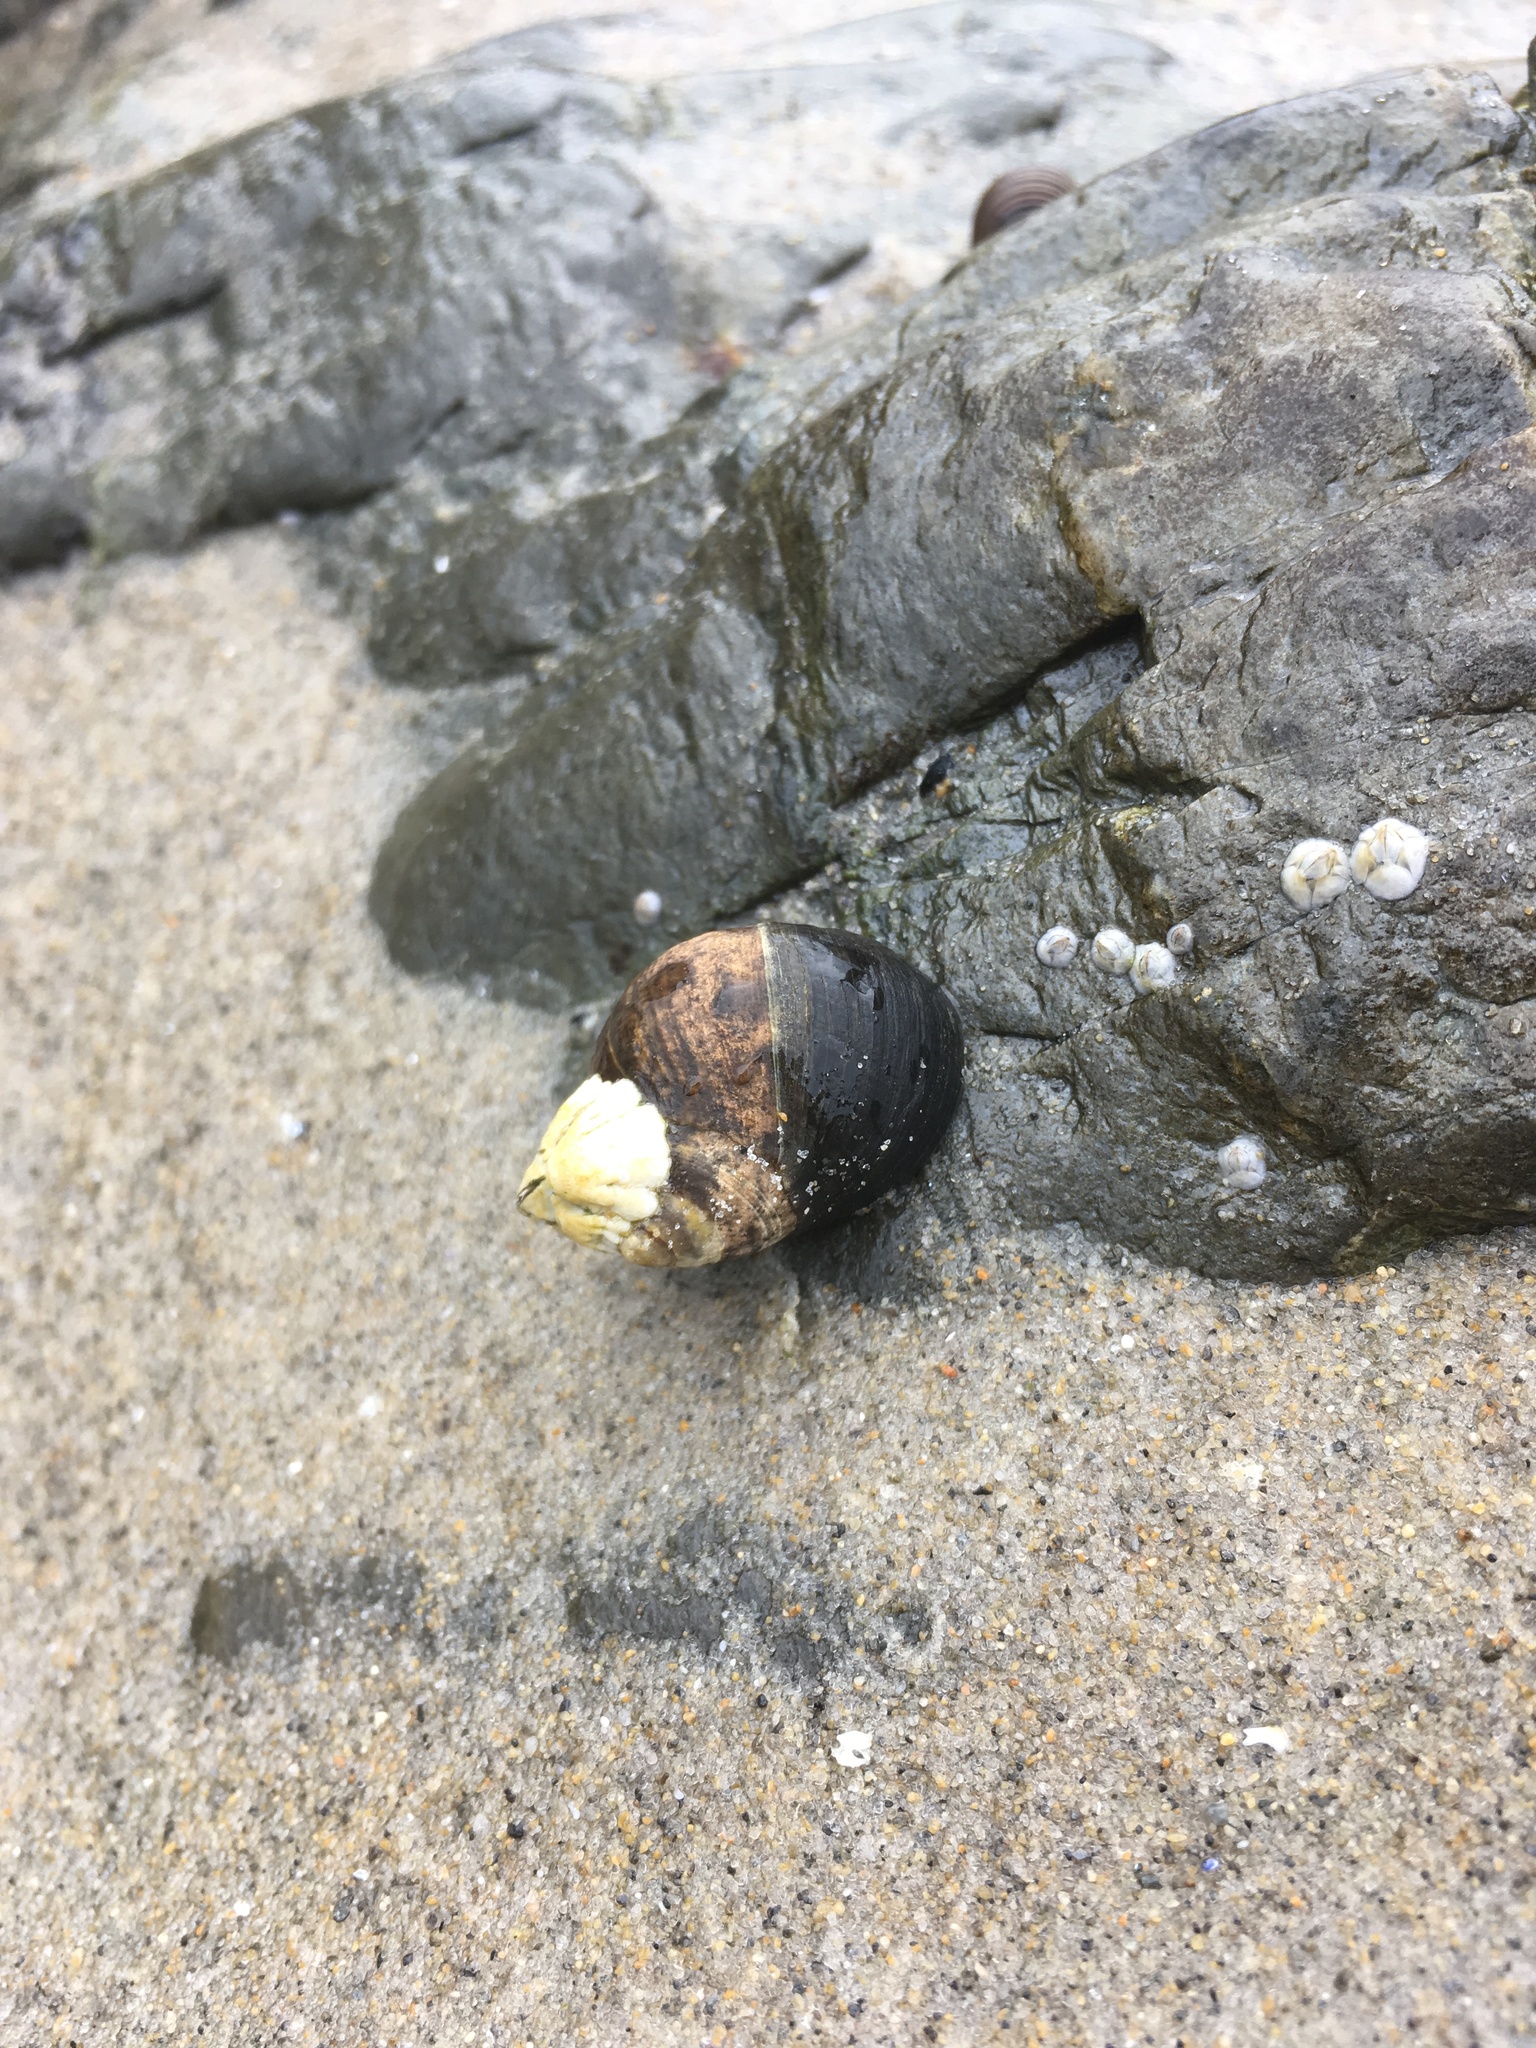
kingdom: Animalia
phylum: Mollusca
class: Gastropoda
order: Littorinimorpha
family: Littorinidae
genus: Littorina
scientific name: Littorina littorea
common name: Common periwinkle
